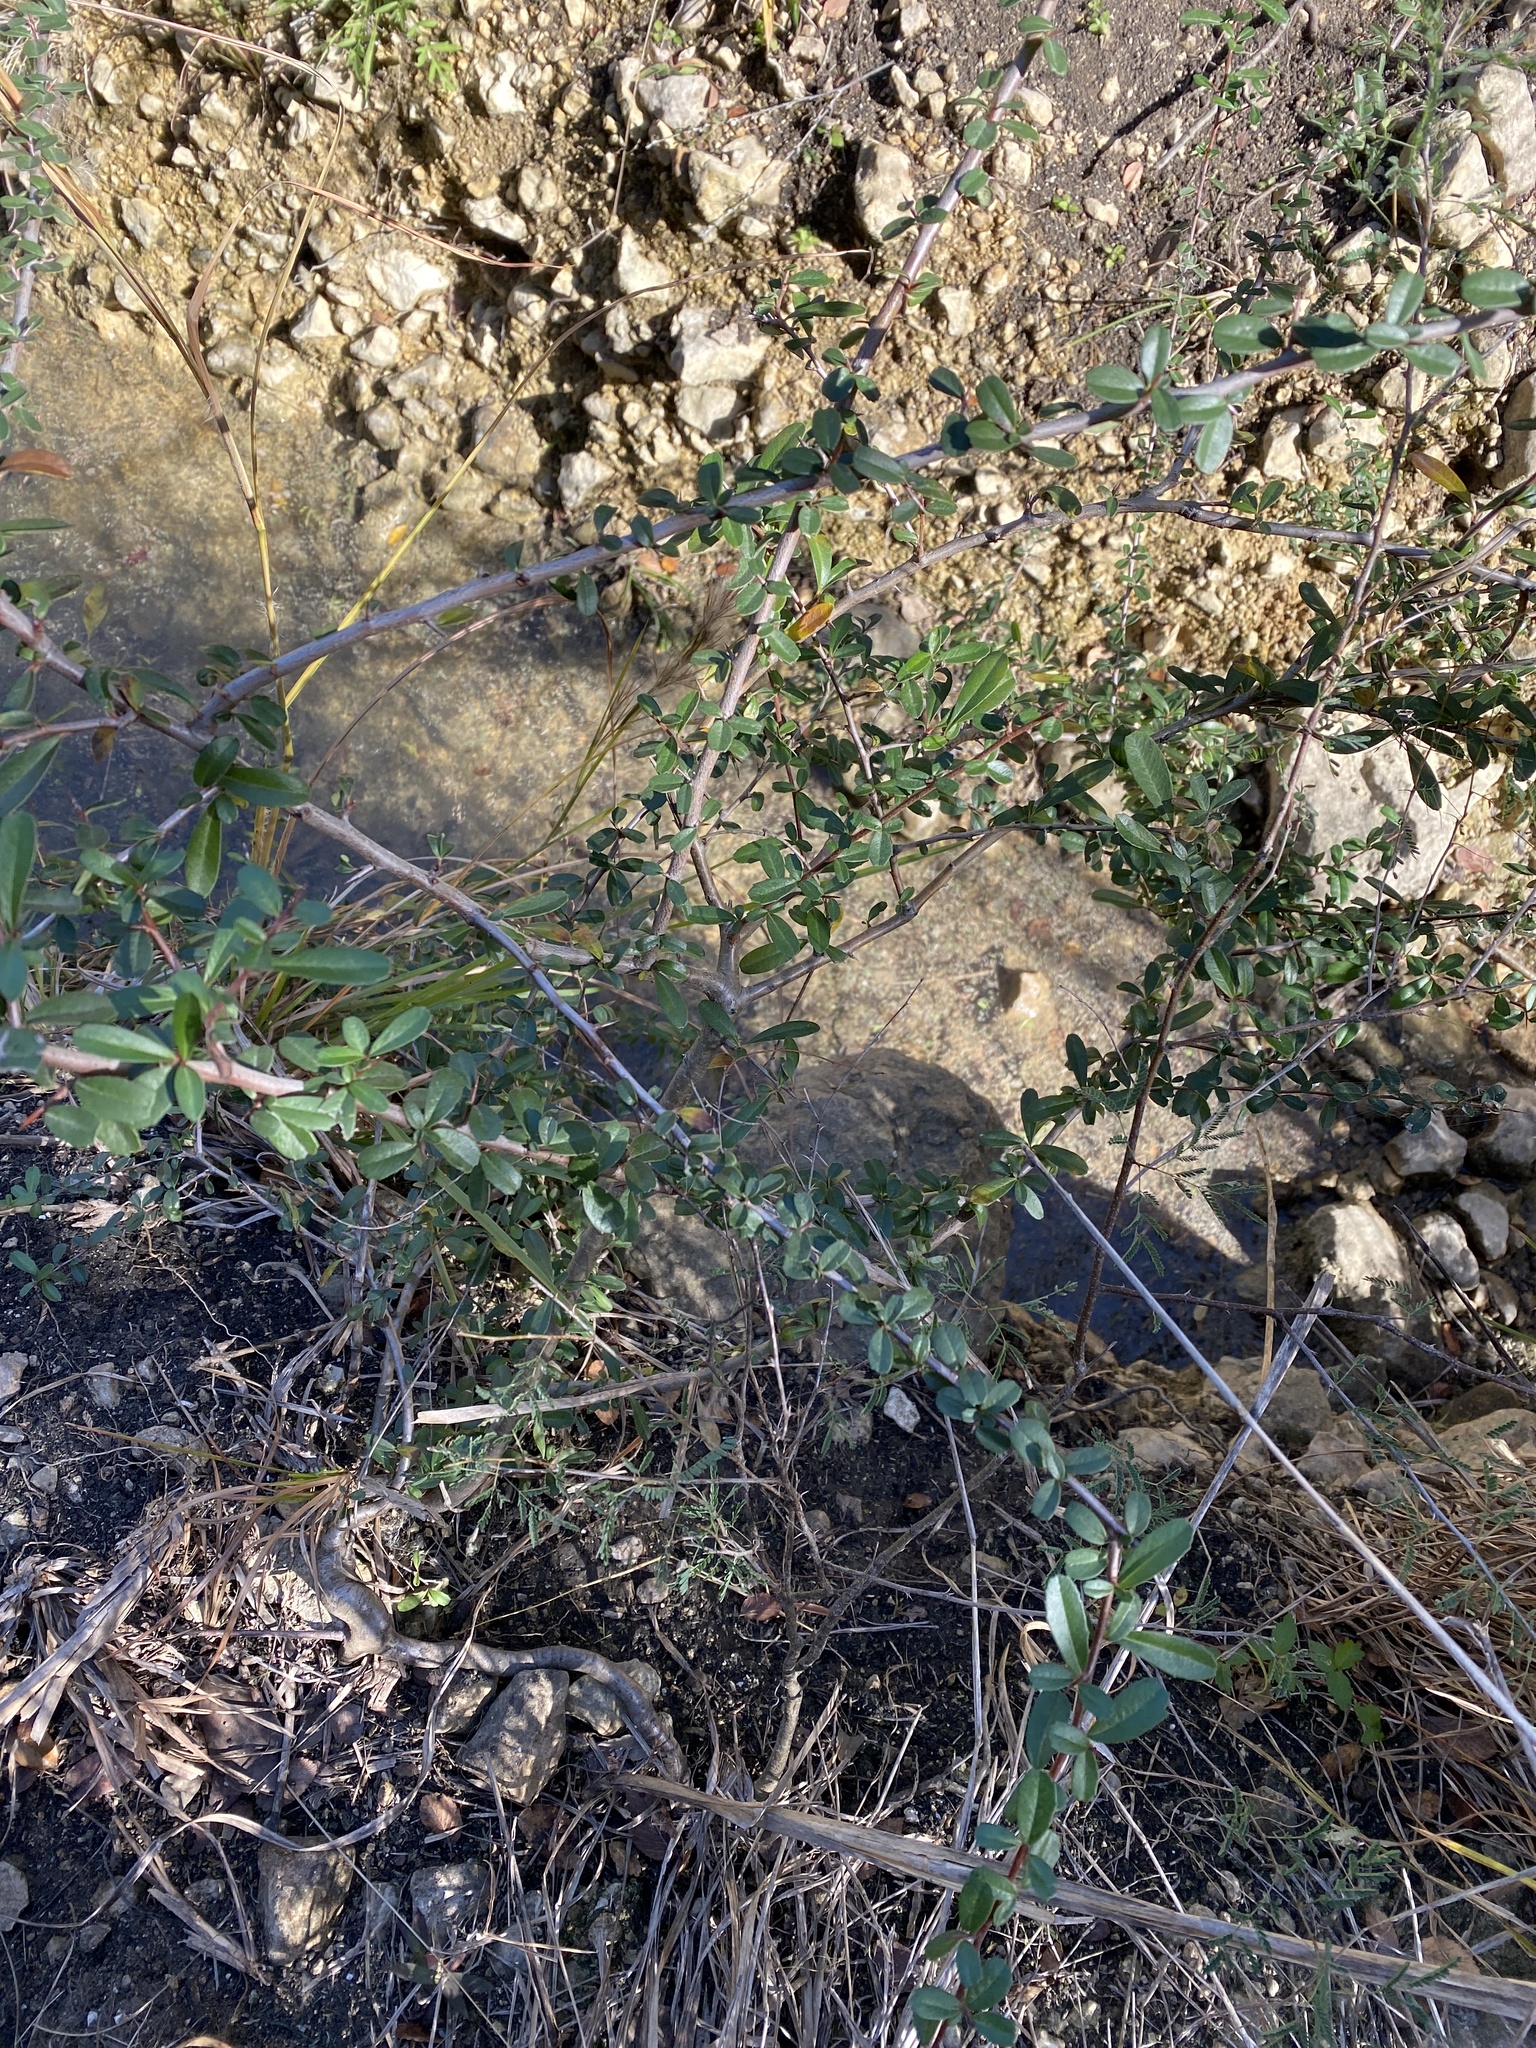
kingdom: Plantae
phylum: Tracheophyta
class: Magnoliopsida
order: Ericales
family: Sapotaceae
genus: Sideroxylon
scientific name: Sideroxylon lanuginosum
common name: Chittamwood
